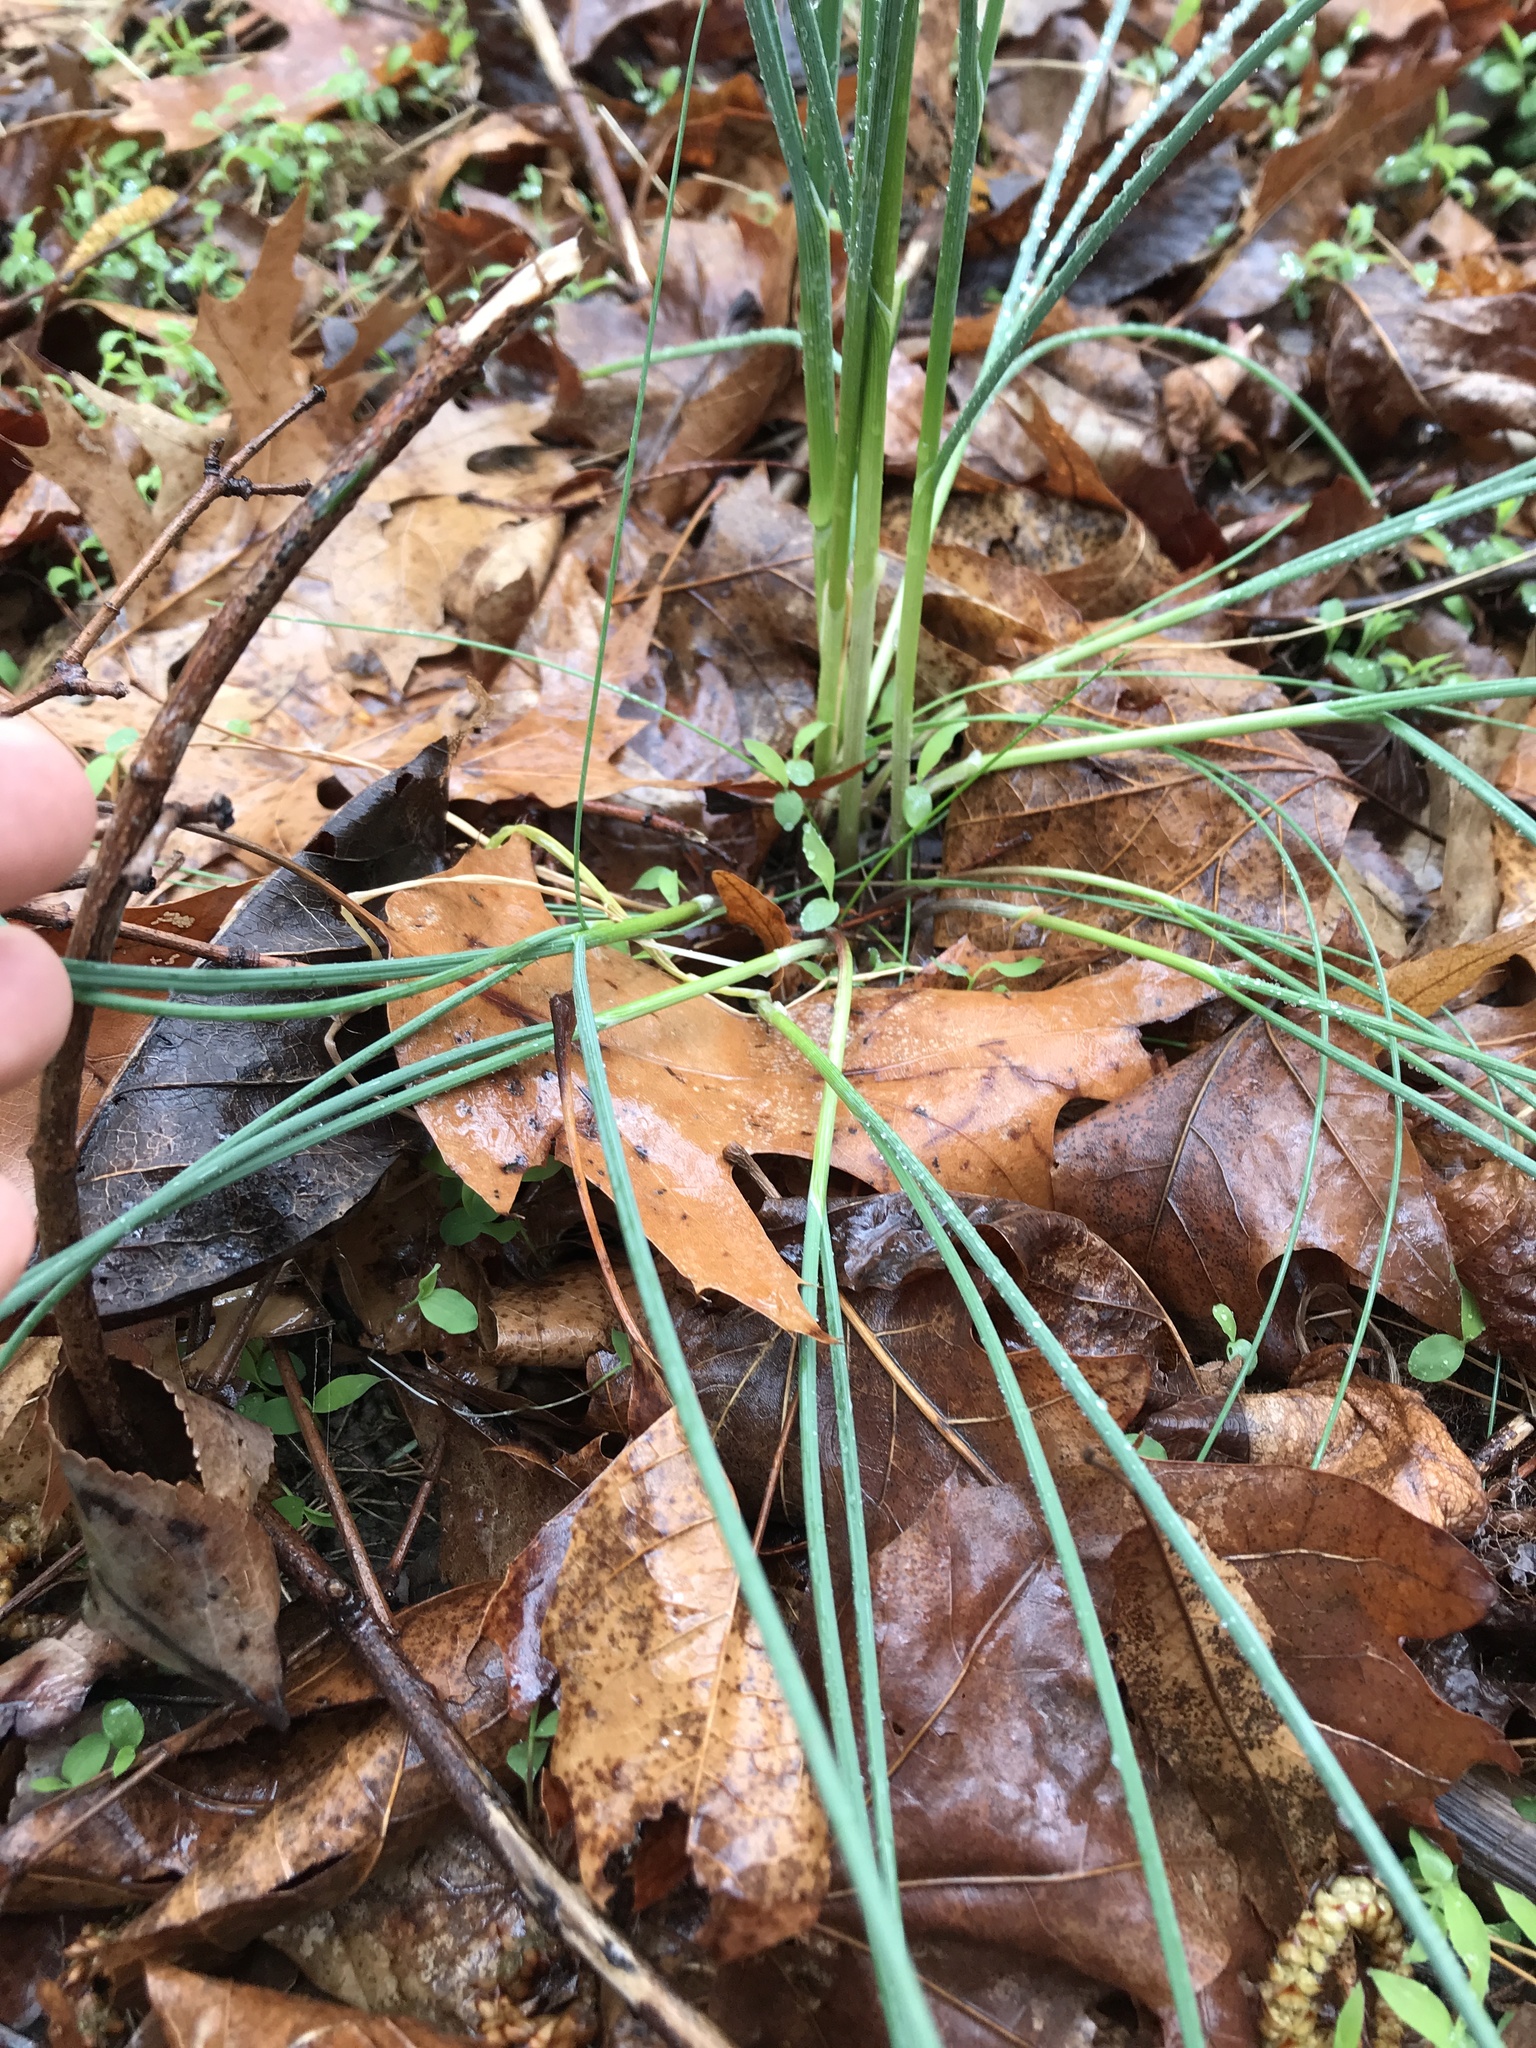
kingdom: Plantae
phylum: Tracheophyta
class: Liliopsida
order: Asparagales
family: Amaryllidaceae
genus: Allium
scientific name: Allium vineale
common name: Crow garlic
